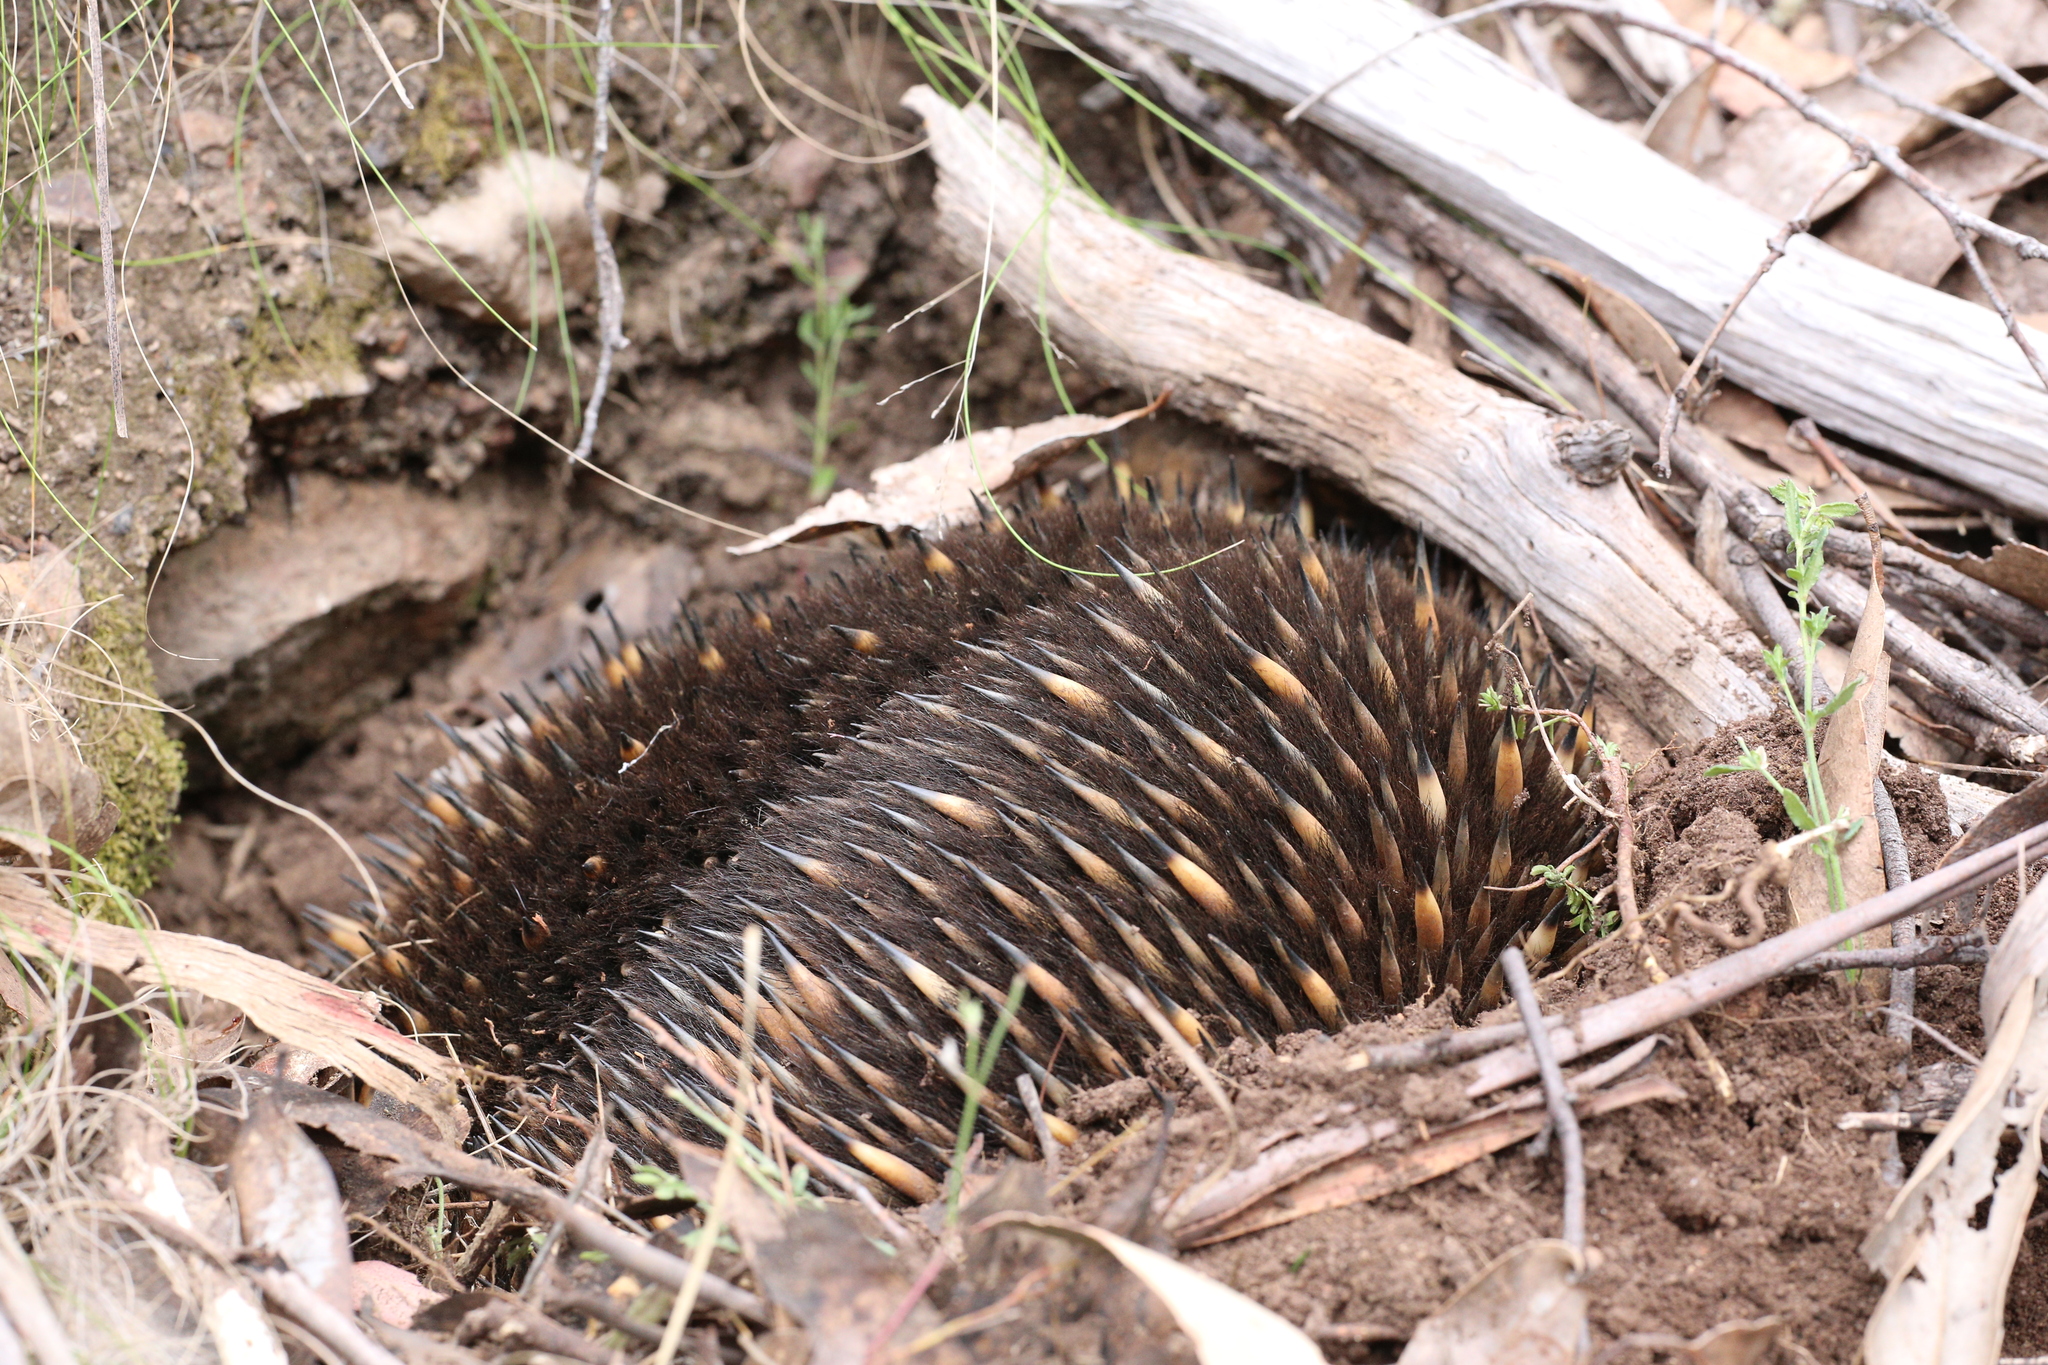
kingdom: Animalia
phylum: Chordata
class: Mammalia
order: Monotremata
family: Tachyglossidae
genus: Tachyglossus
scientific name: Tachyglossus aculeatus
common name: Short-beaked echidna
